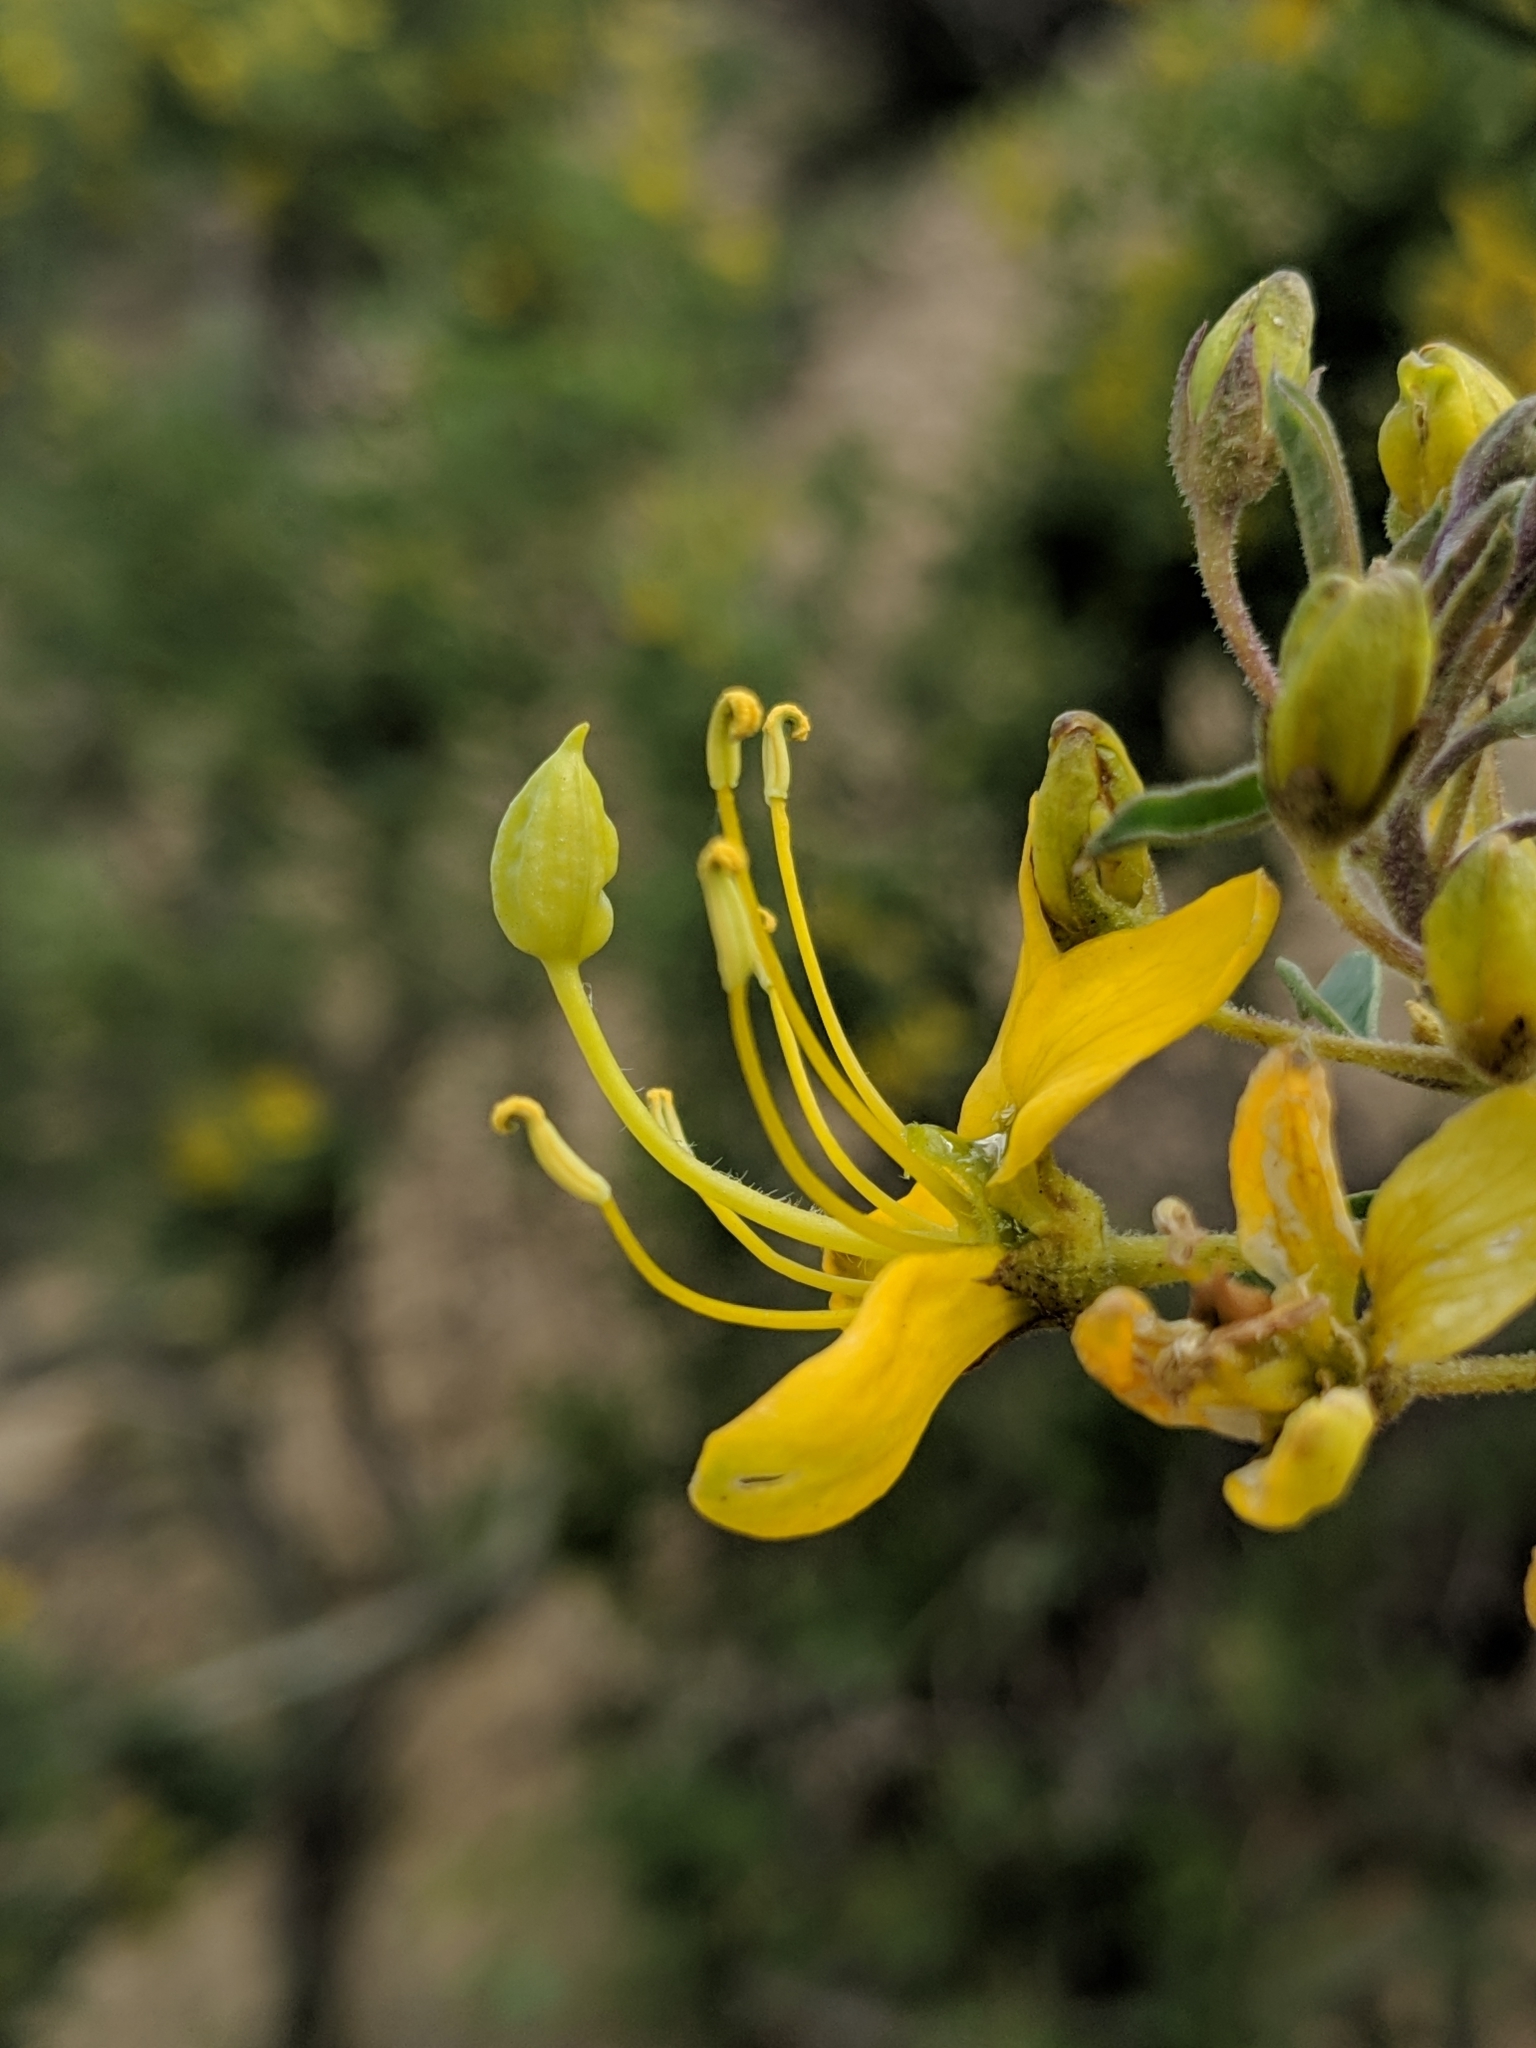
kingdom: Plantae
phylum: Tracheophyta
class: Magnoliopsida
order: Brassicales
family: Cleomaceae
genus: Cleomella
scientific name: Cleomella arborea
